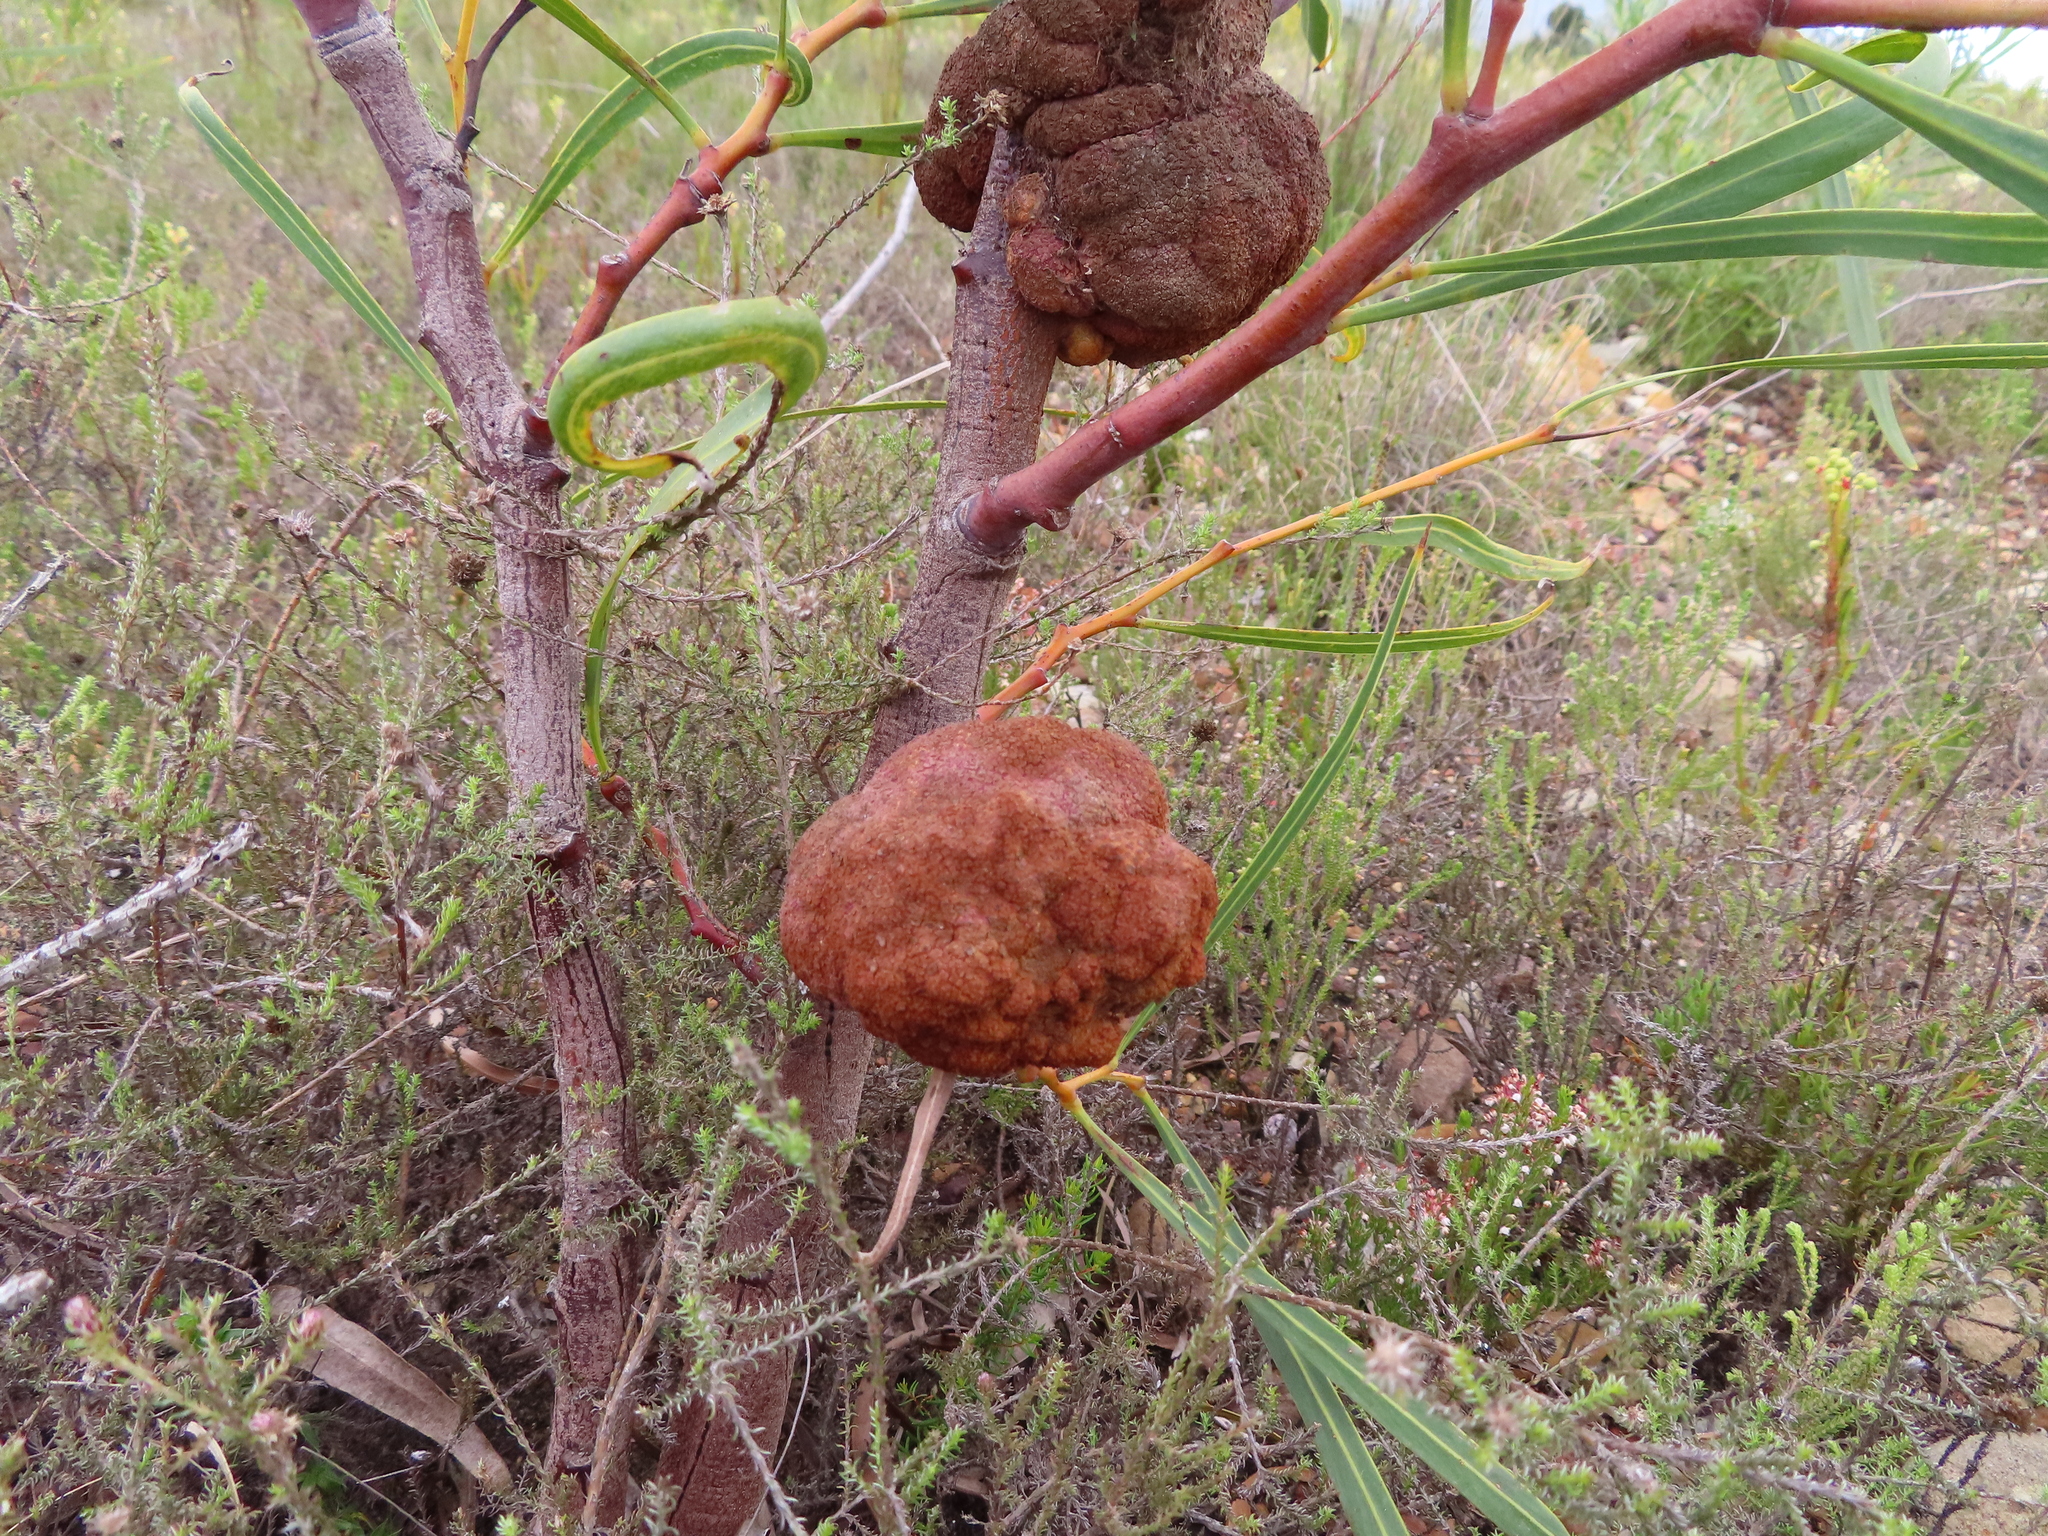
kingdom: Fungi
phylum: Basidiomycota
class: Pucciniomycetes
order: Pucciniales
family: Uromycladiaceae
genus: Uromycladium
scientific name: Uromycladium morrisii
